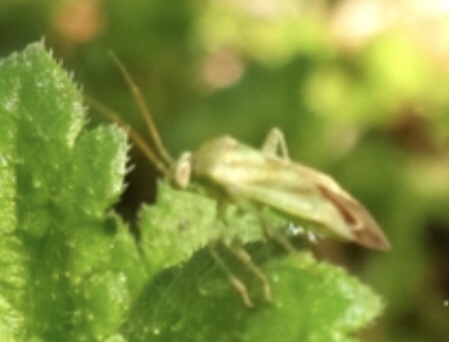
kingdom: Animalia
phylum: Arthropoda
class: Insecta
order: Hemiptera
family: Miridae
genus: Taylorilygus
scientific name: Taylorilygus apicalis
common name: Plant bug
